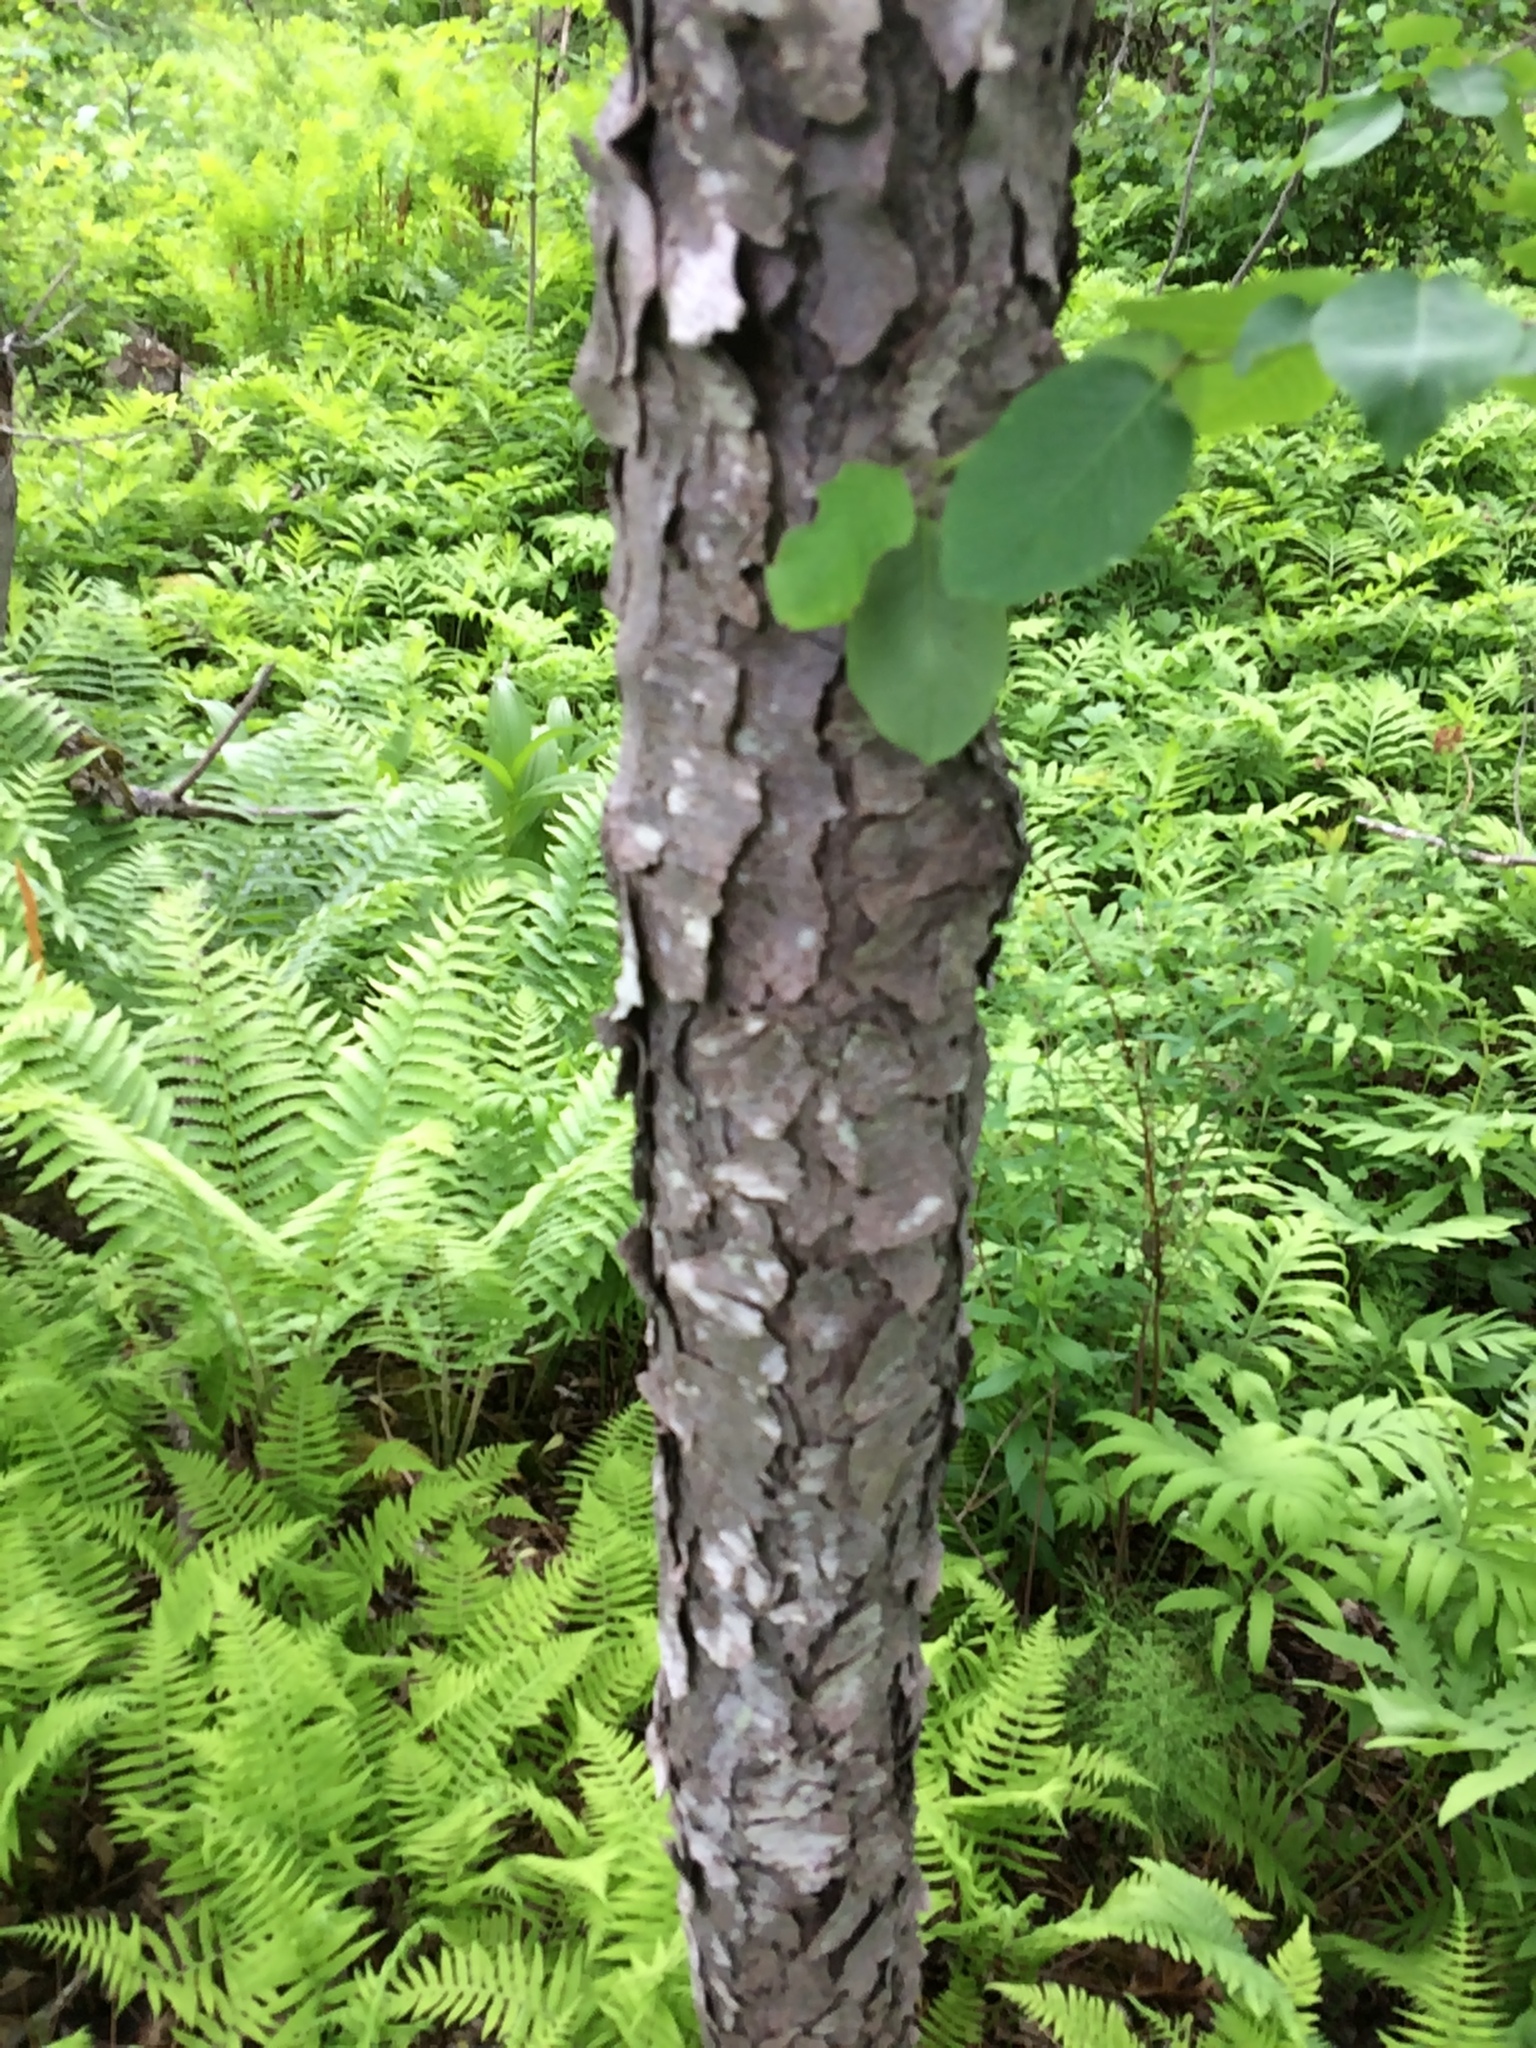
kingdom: Plantae
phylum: Tracheophyta
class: Magnoliopsida
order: Rosales
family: Rosaceae
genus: Prunus
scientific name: Prunus serotina
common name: Black cherry
